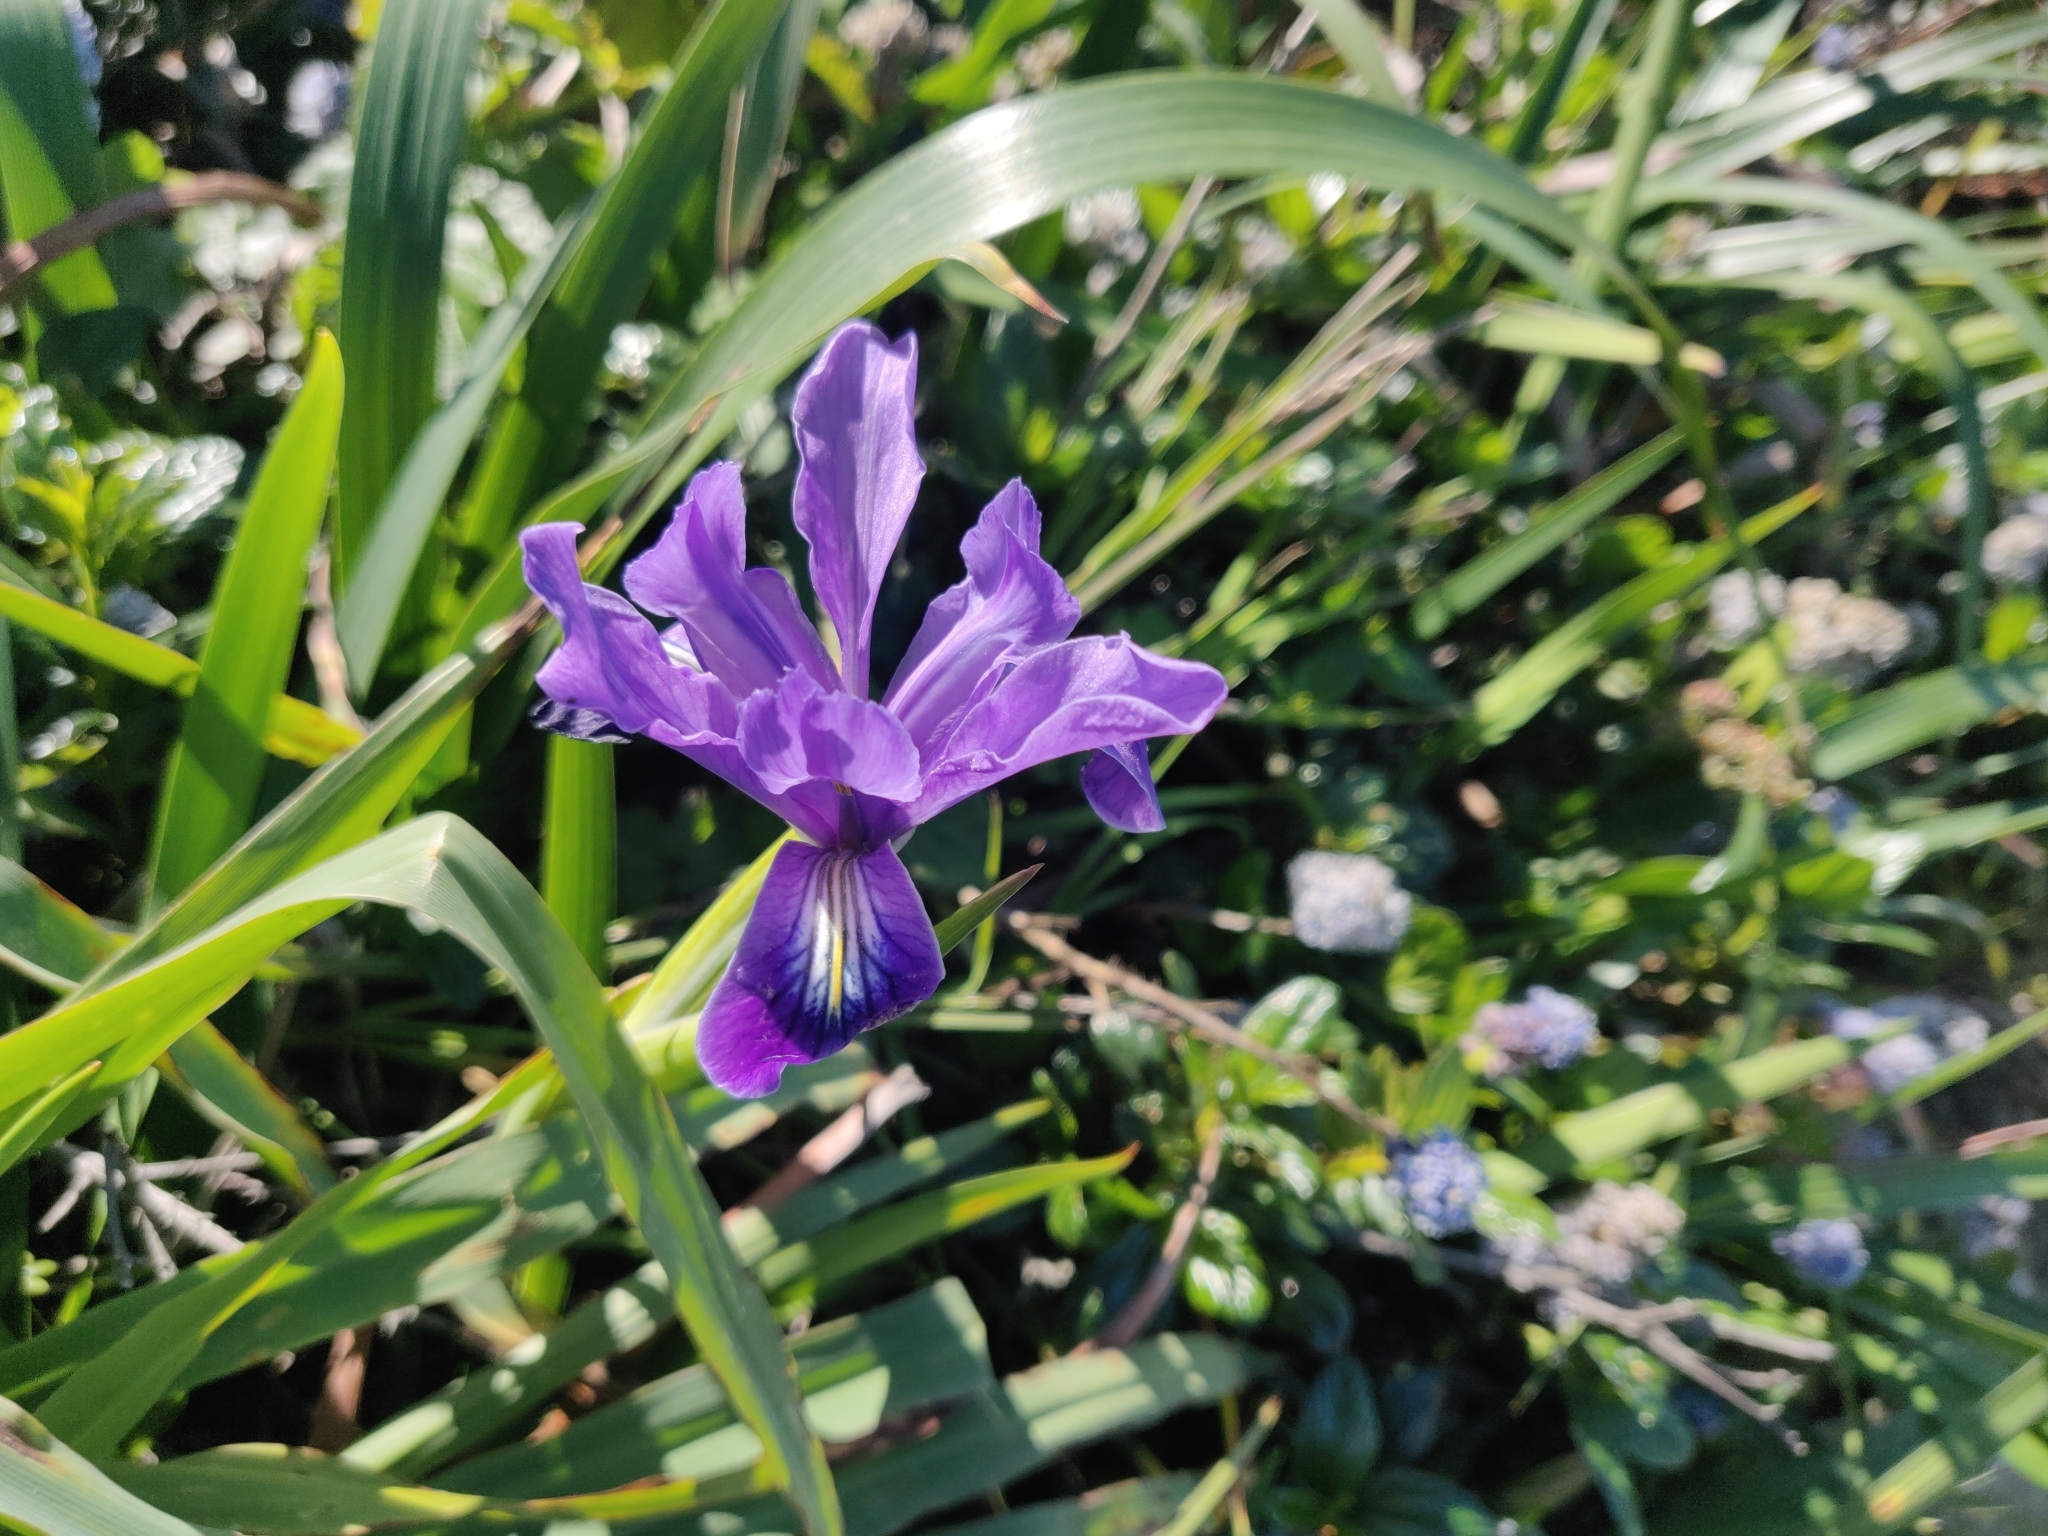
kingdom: Plantae
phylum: Tracheophyta
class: Liliopsida
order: Asparagales
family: Iridaceae
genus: Iris
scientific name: Iris douglasiana
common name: Marin iris
